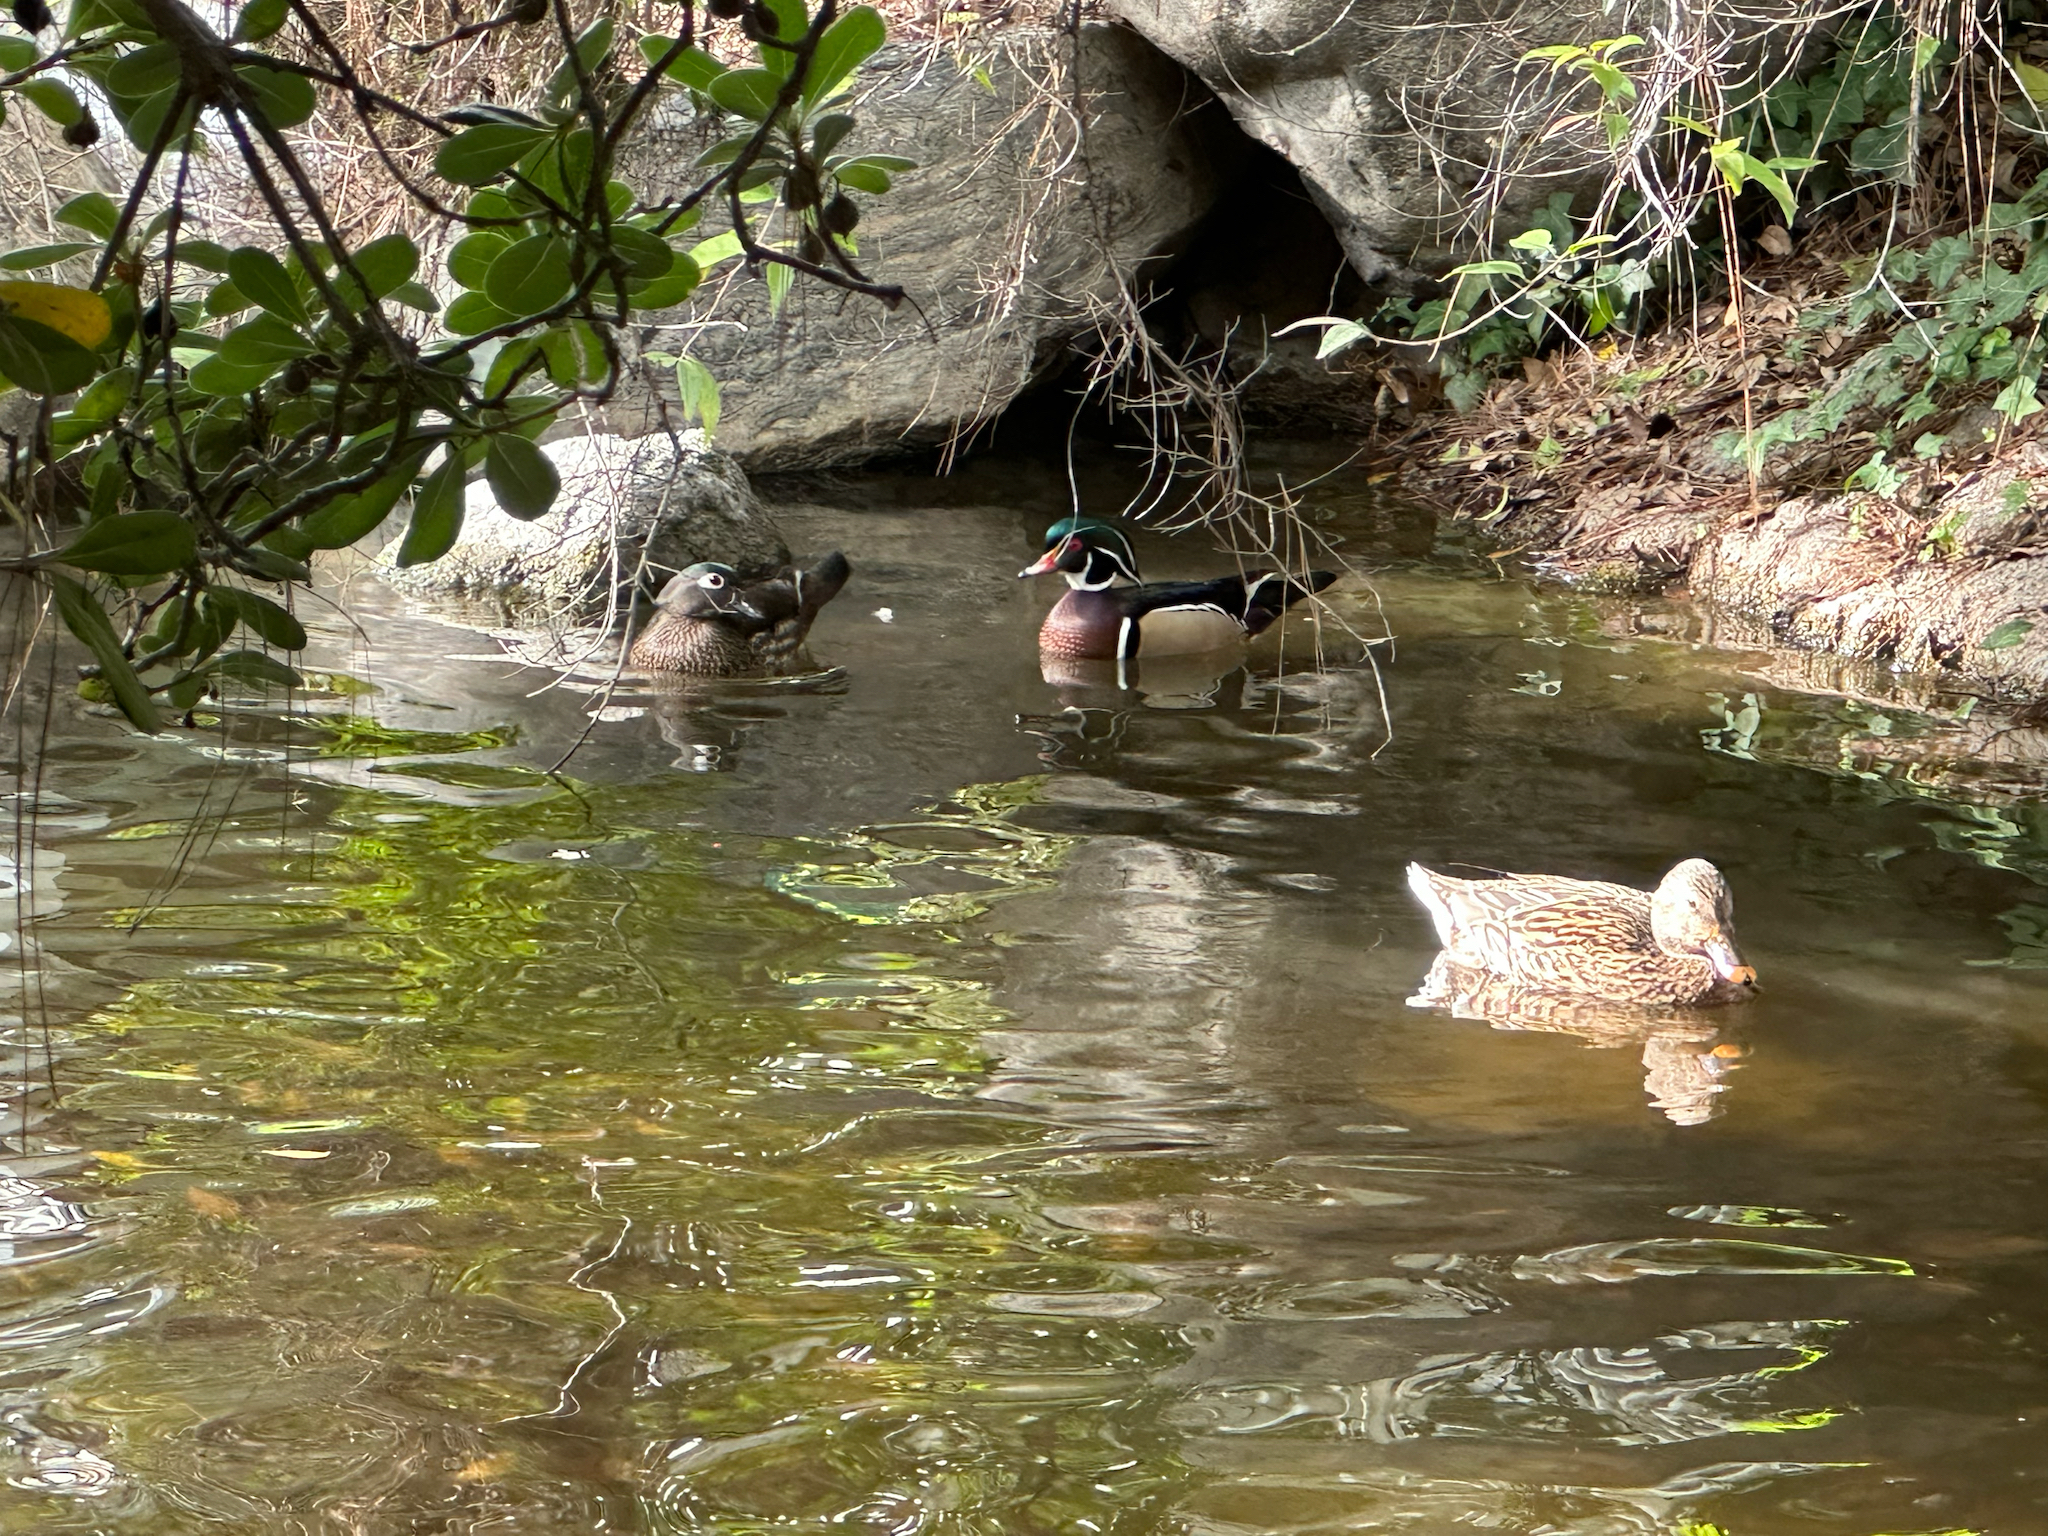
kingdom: Animalia
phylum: Chordata
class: Aves
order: Anseriformes
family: Anatidae
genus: Aix
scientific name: Aix sponsa
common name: Wood duck
